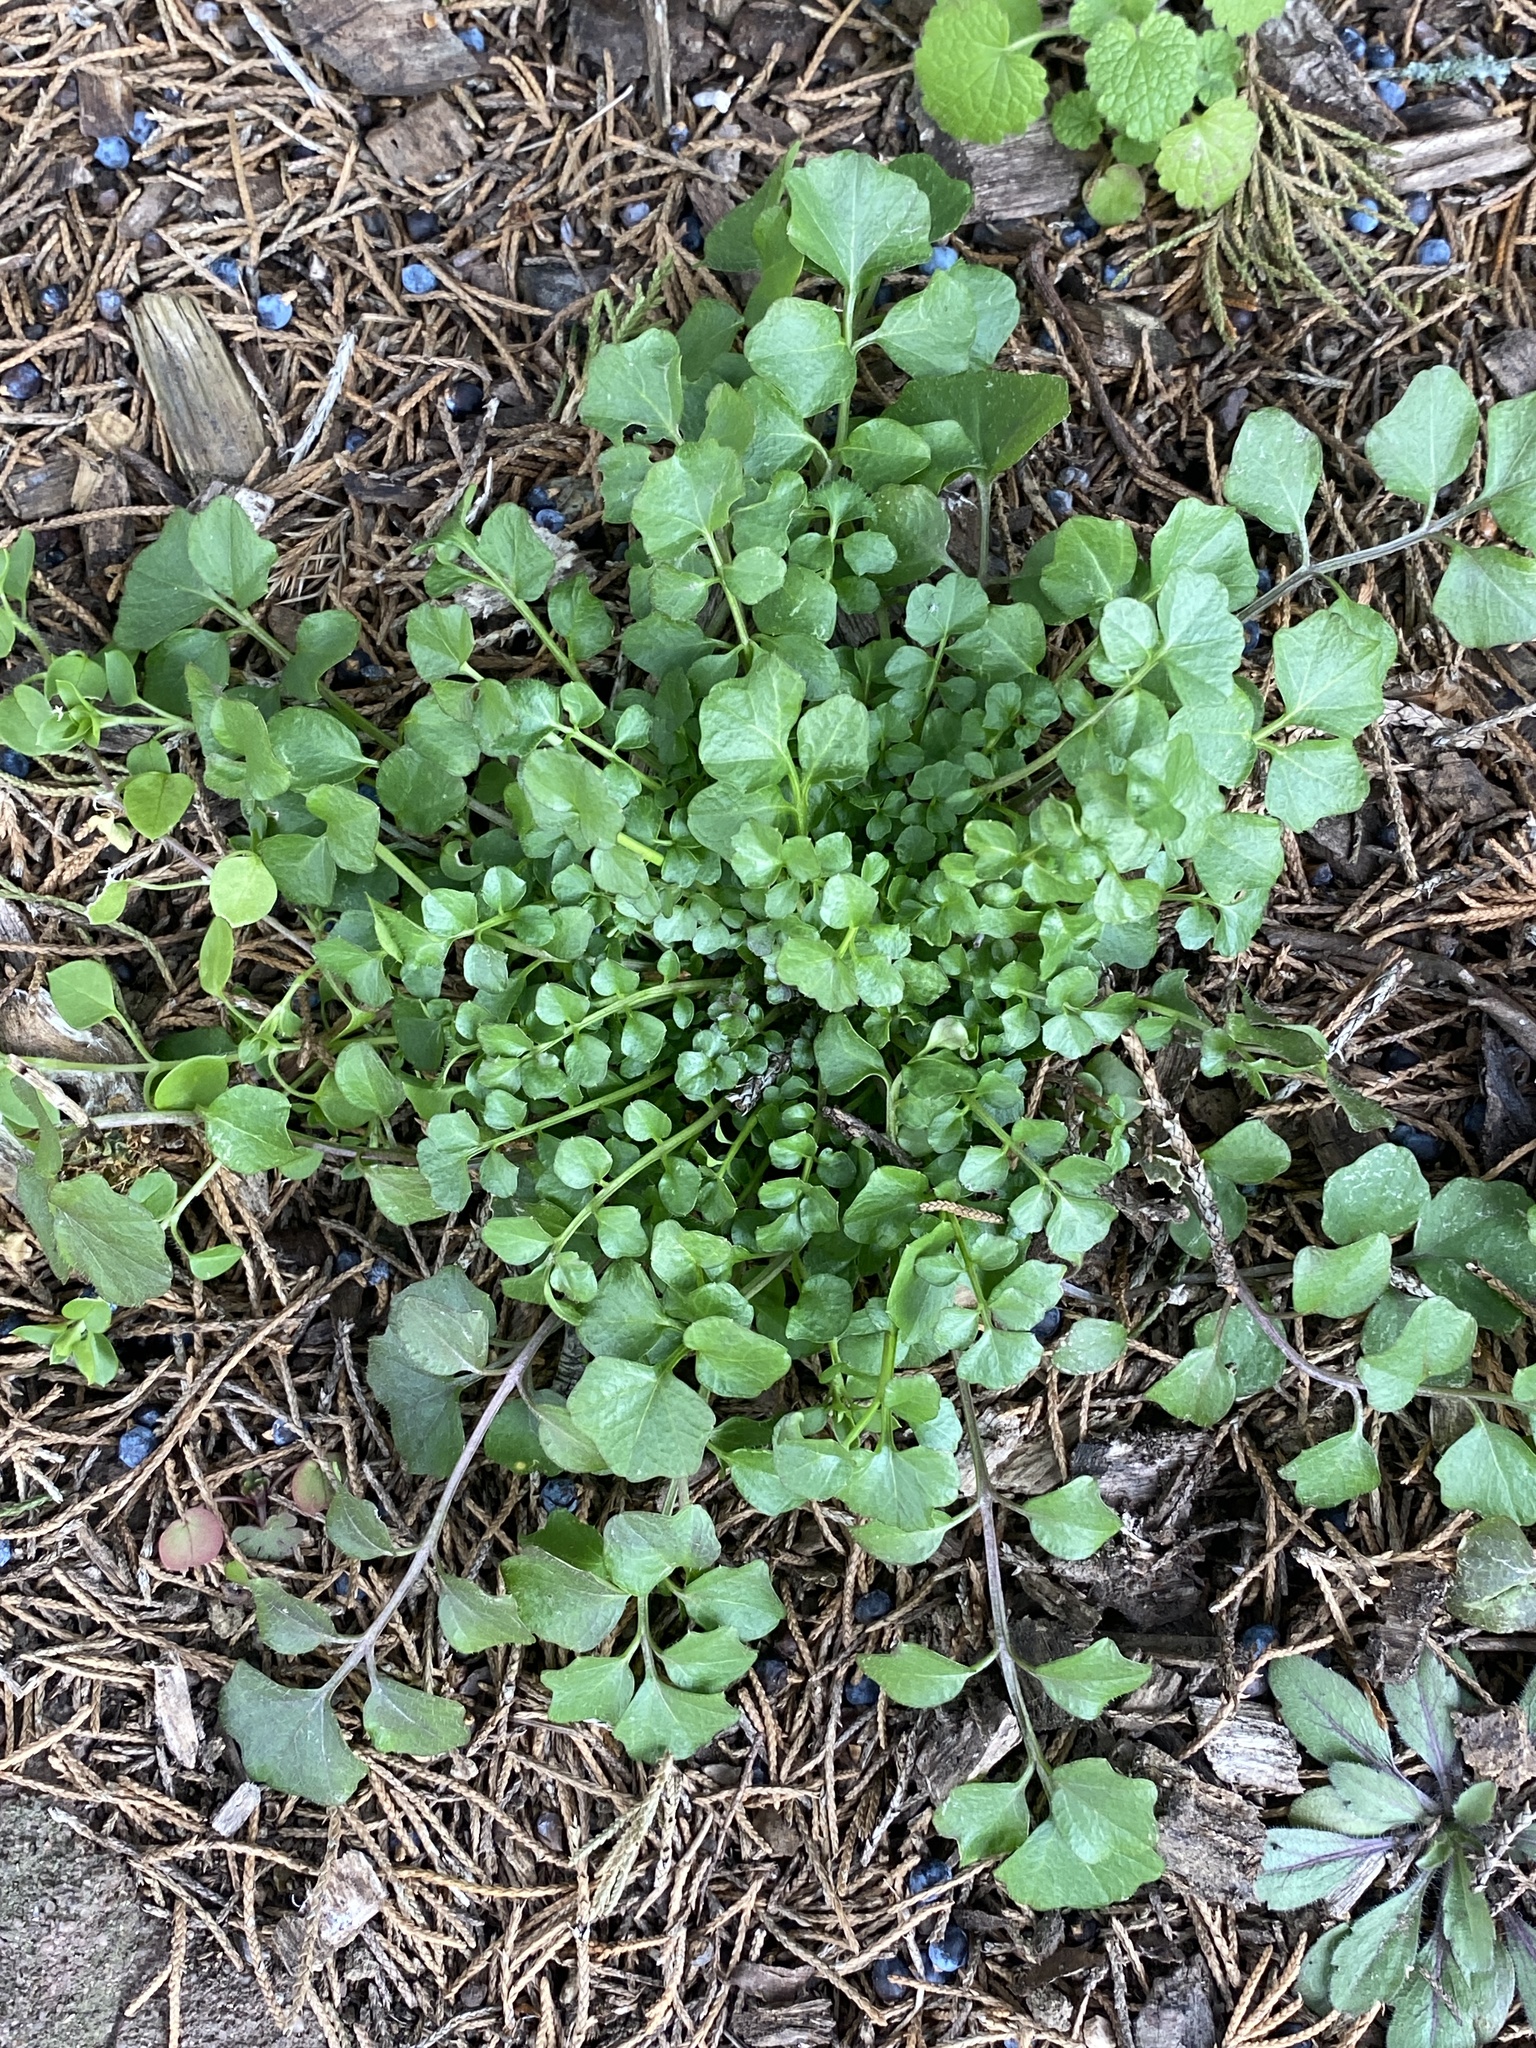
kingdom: Plantae
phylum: Tracheophyta
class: Magnoliopsida
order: Brassicales
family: Brassicaceae
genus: Cardamine
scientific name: Cardamine hirsuta
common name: Hairy bittercress
